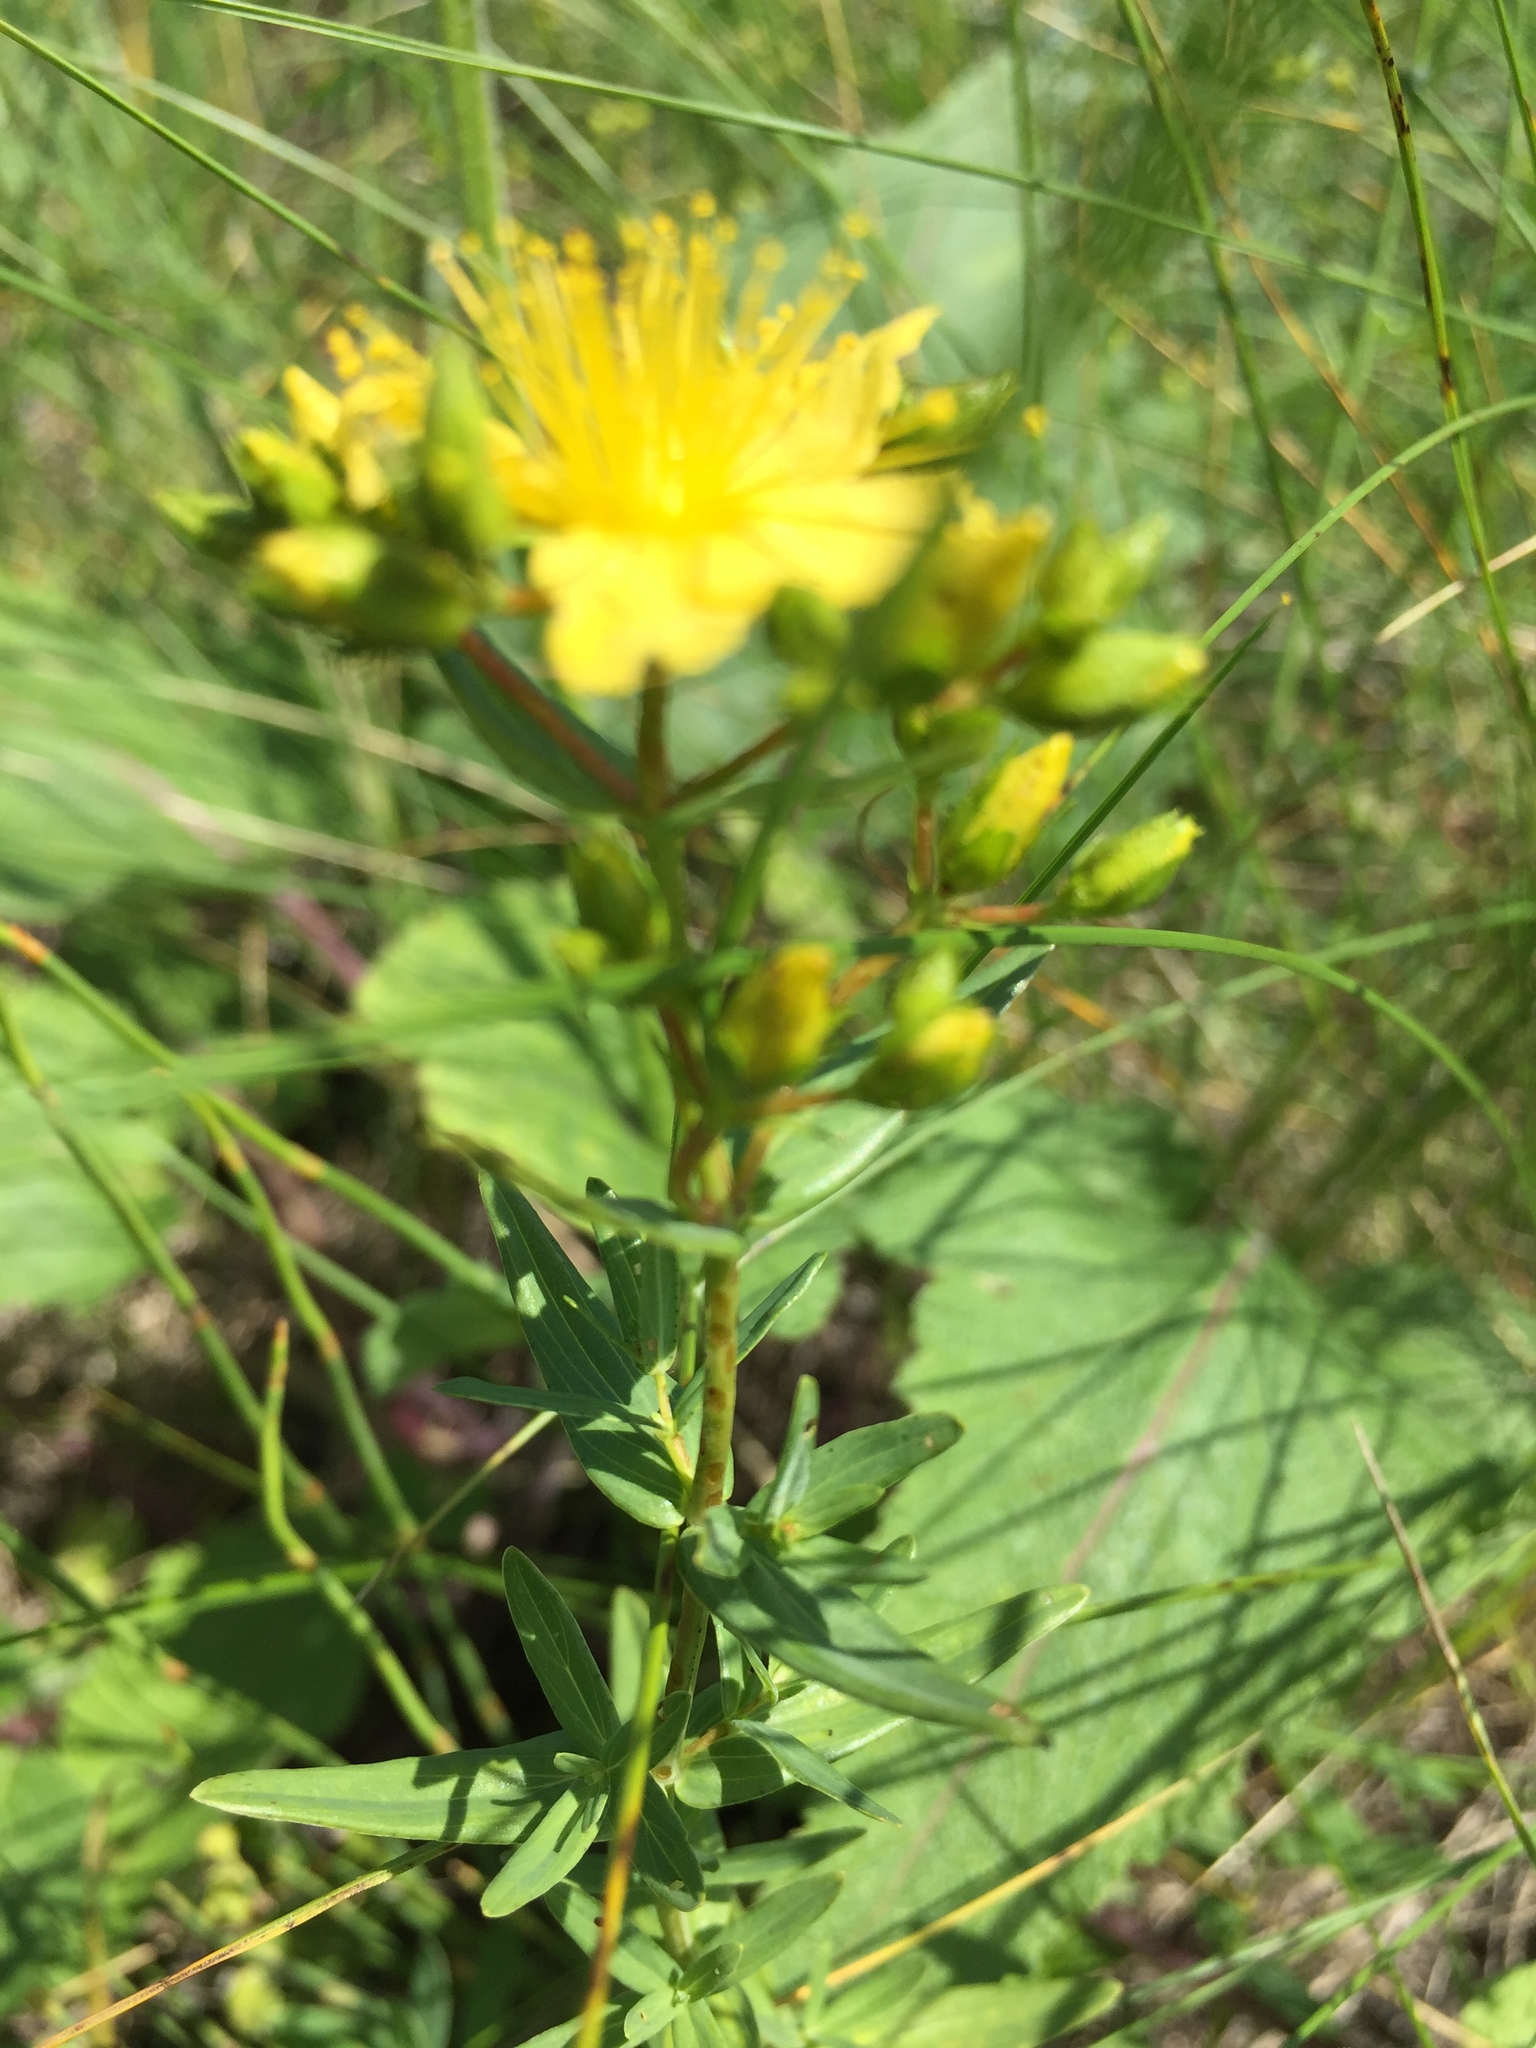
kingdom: Plantae
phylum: Tracheophyta
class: Magnoliopsida
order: Malpighiales
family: Hypericaceae
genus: Hypericum
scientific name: Hypericum elegans
